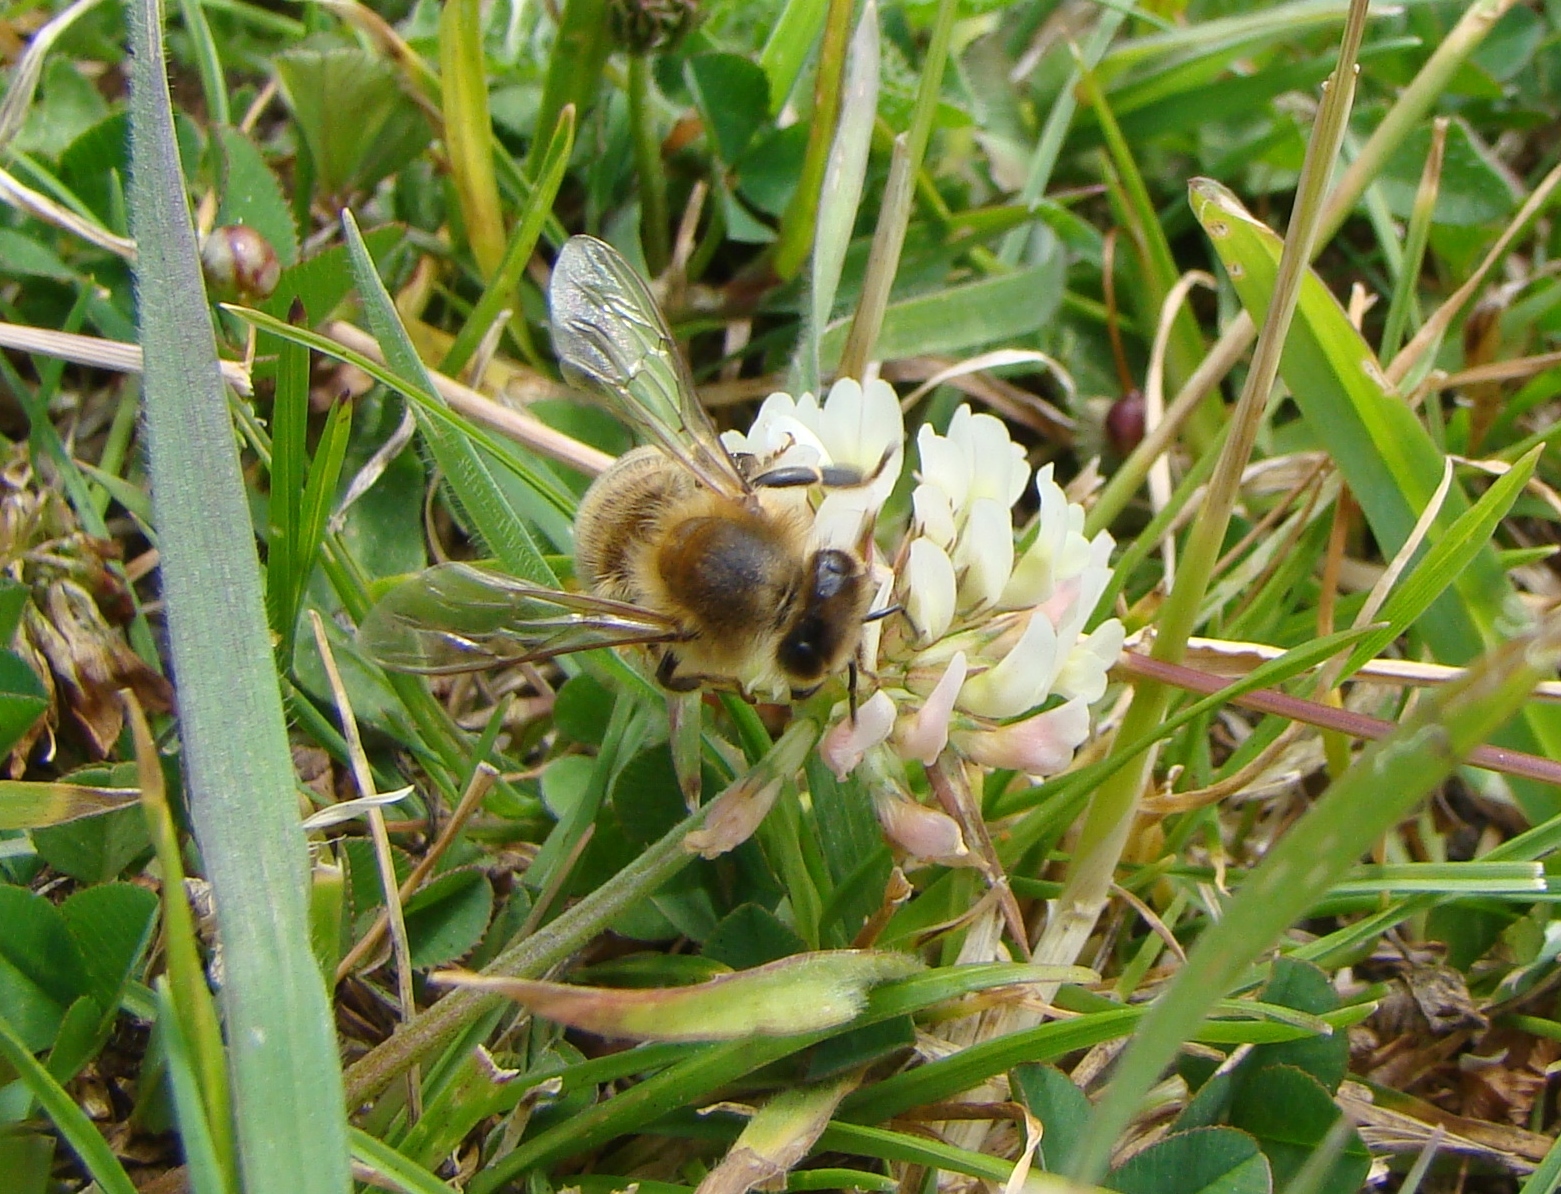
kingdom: Plantae
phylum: Tracheophyta
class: Magnoliopsida
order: Fabales
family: Fabaceae
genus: Trifolium
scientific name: Trifolium repens
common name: White clover
